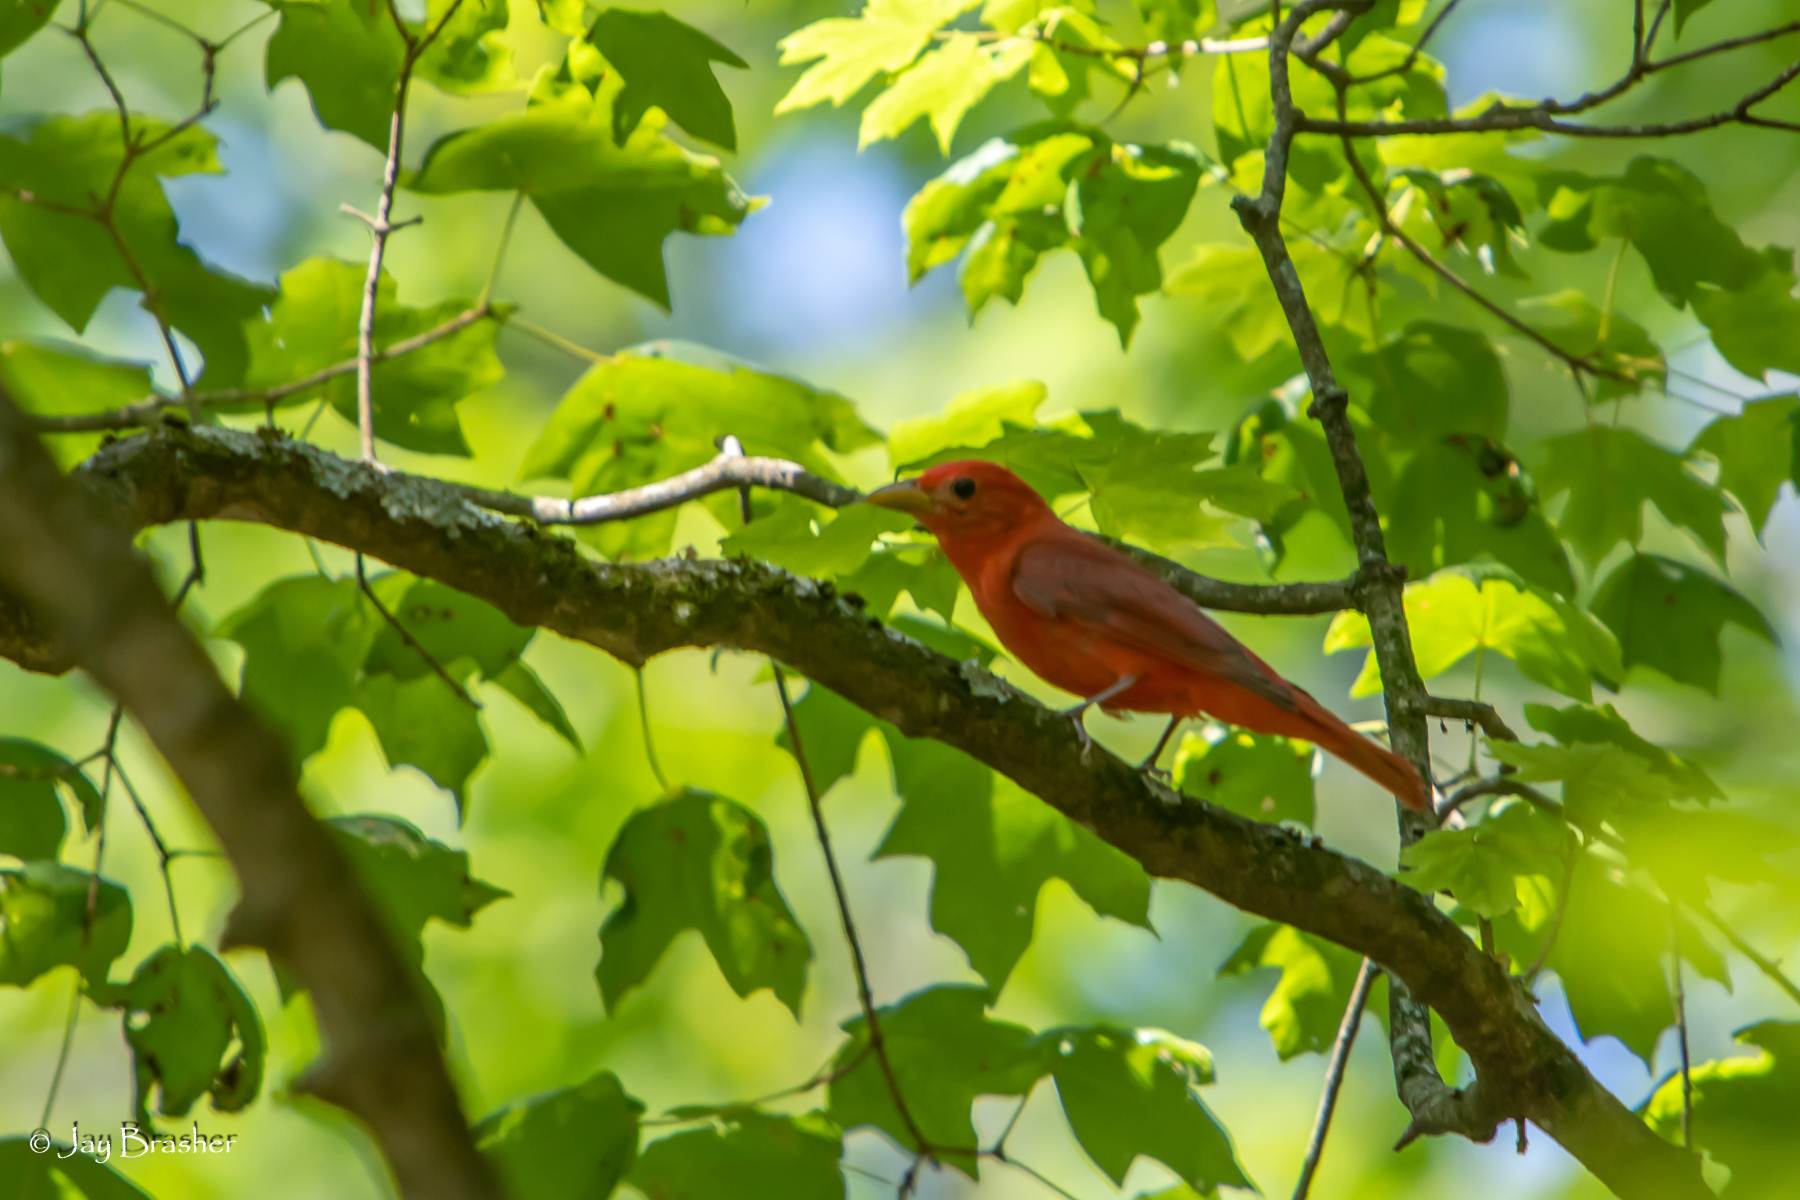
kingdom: Animalia
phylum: Chordata
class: Aves
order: Passeriformes
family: Cardinalidae
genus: Piranga
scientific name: Piranga rubra
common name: Summer tanager
